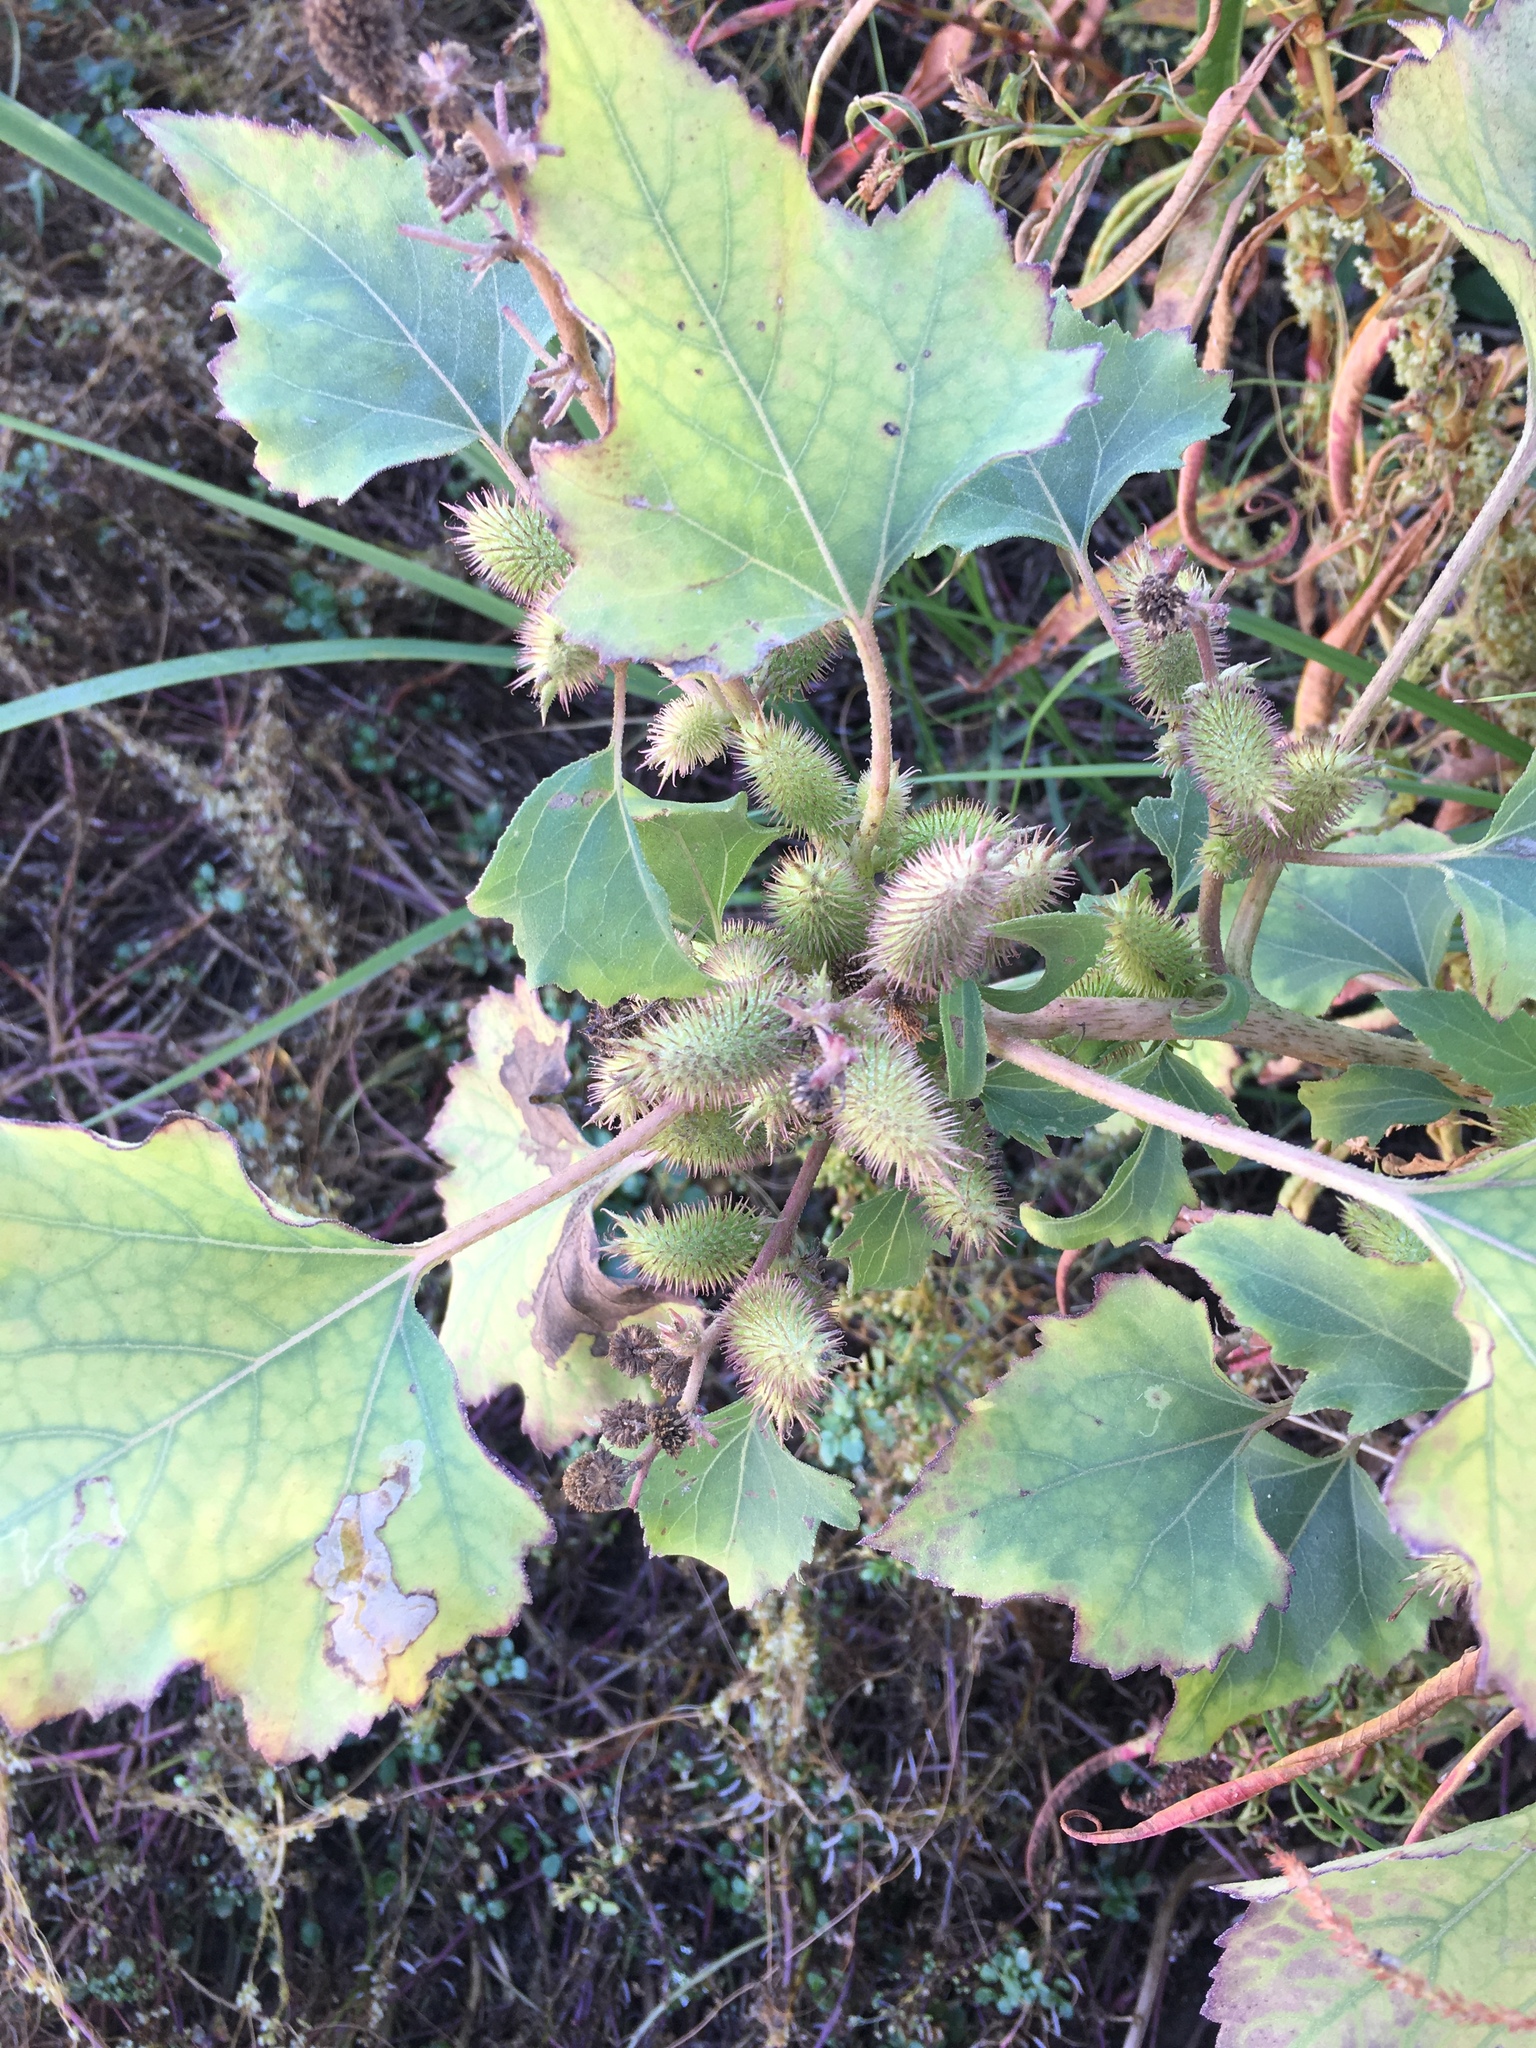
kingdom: Plantae
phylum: Tracheophyta
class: Magnoliopsida
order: Asterales
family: Asteraceae
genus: Xanthium
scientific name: Xanthium strumarium
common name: Rough cocklebur
